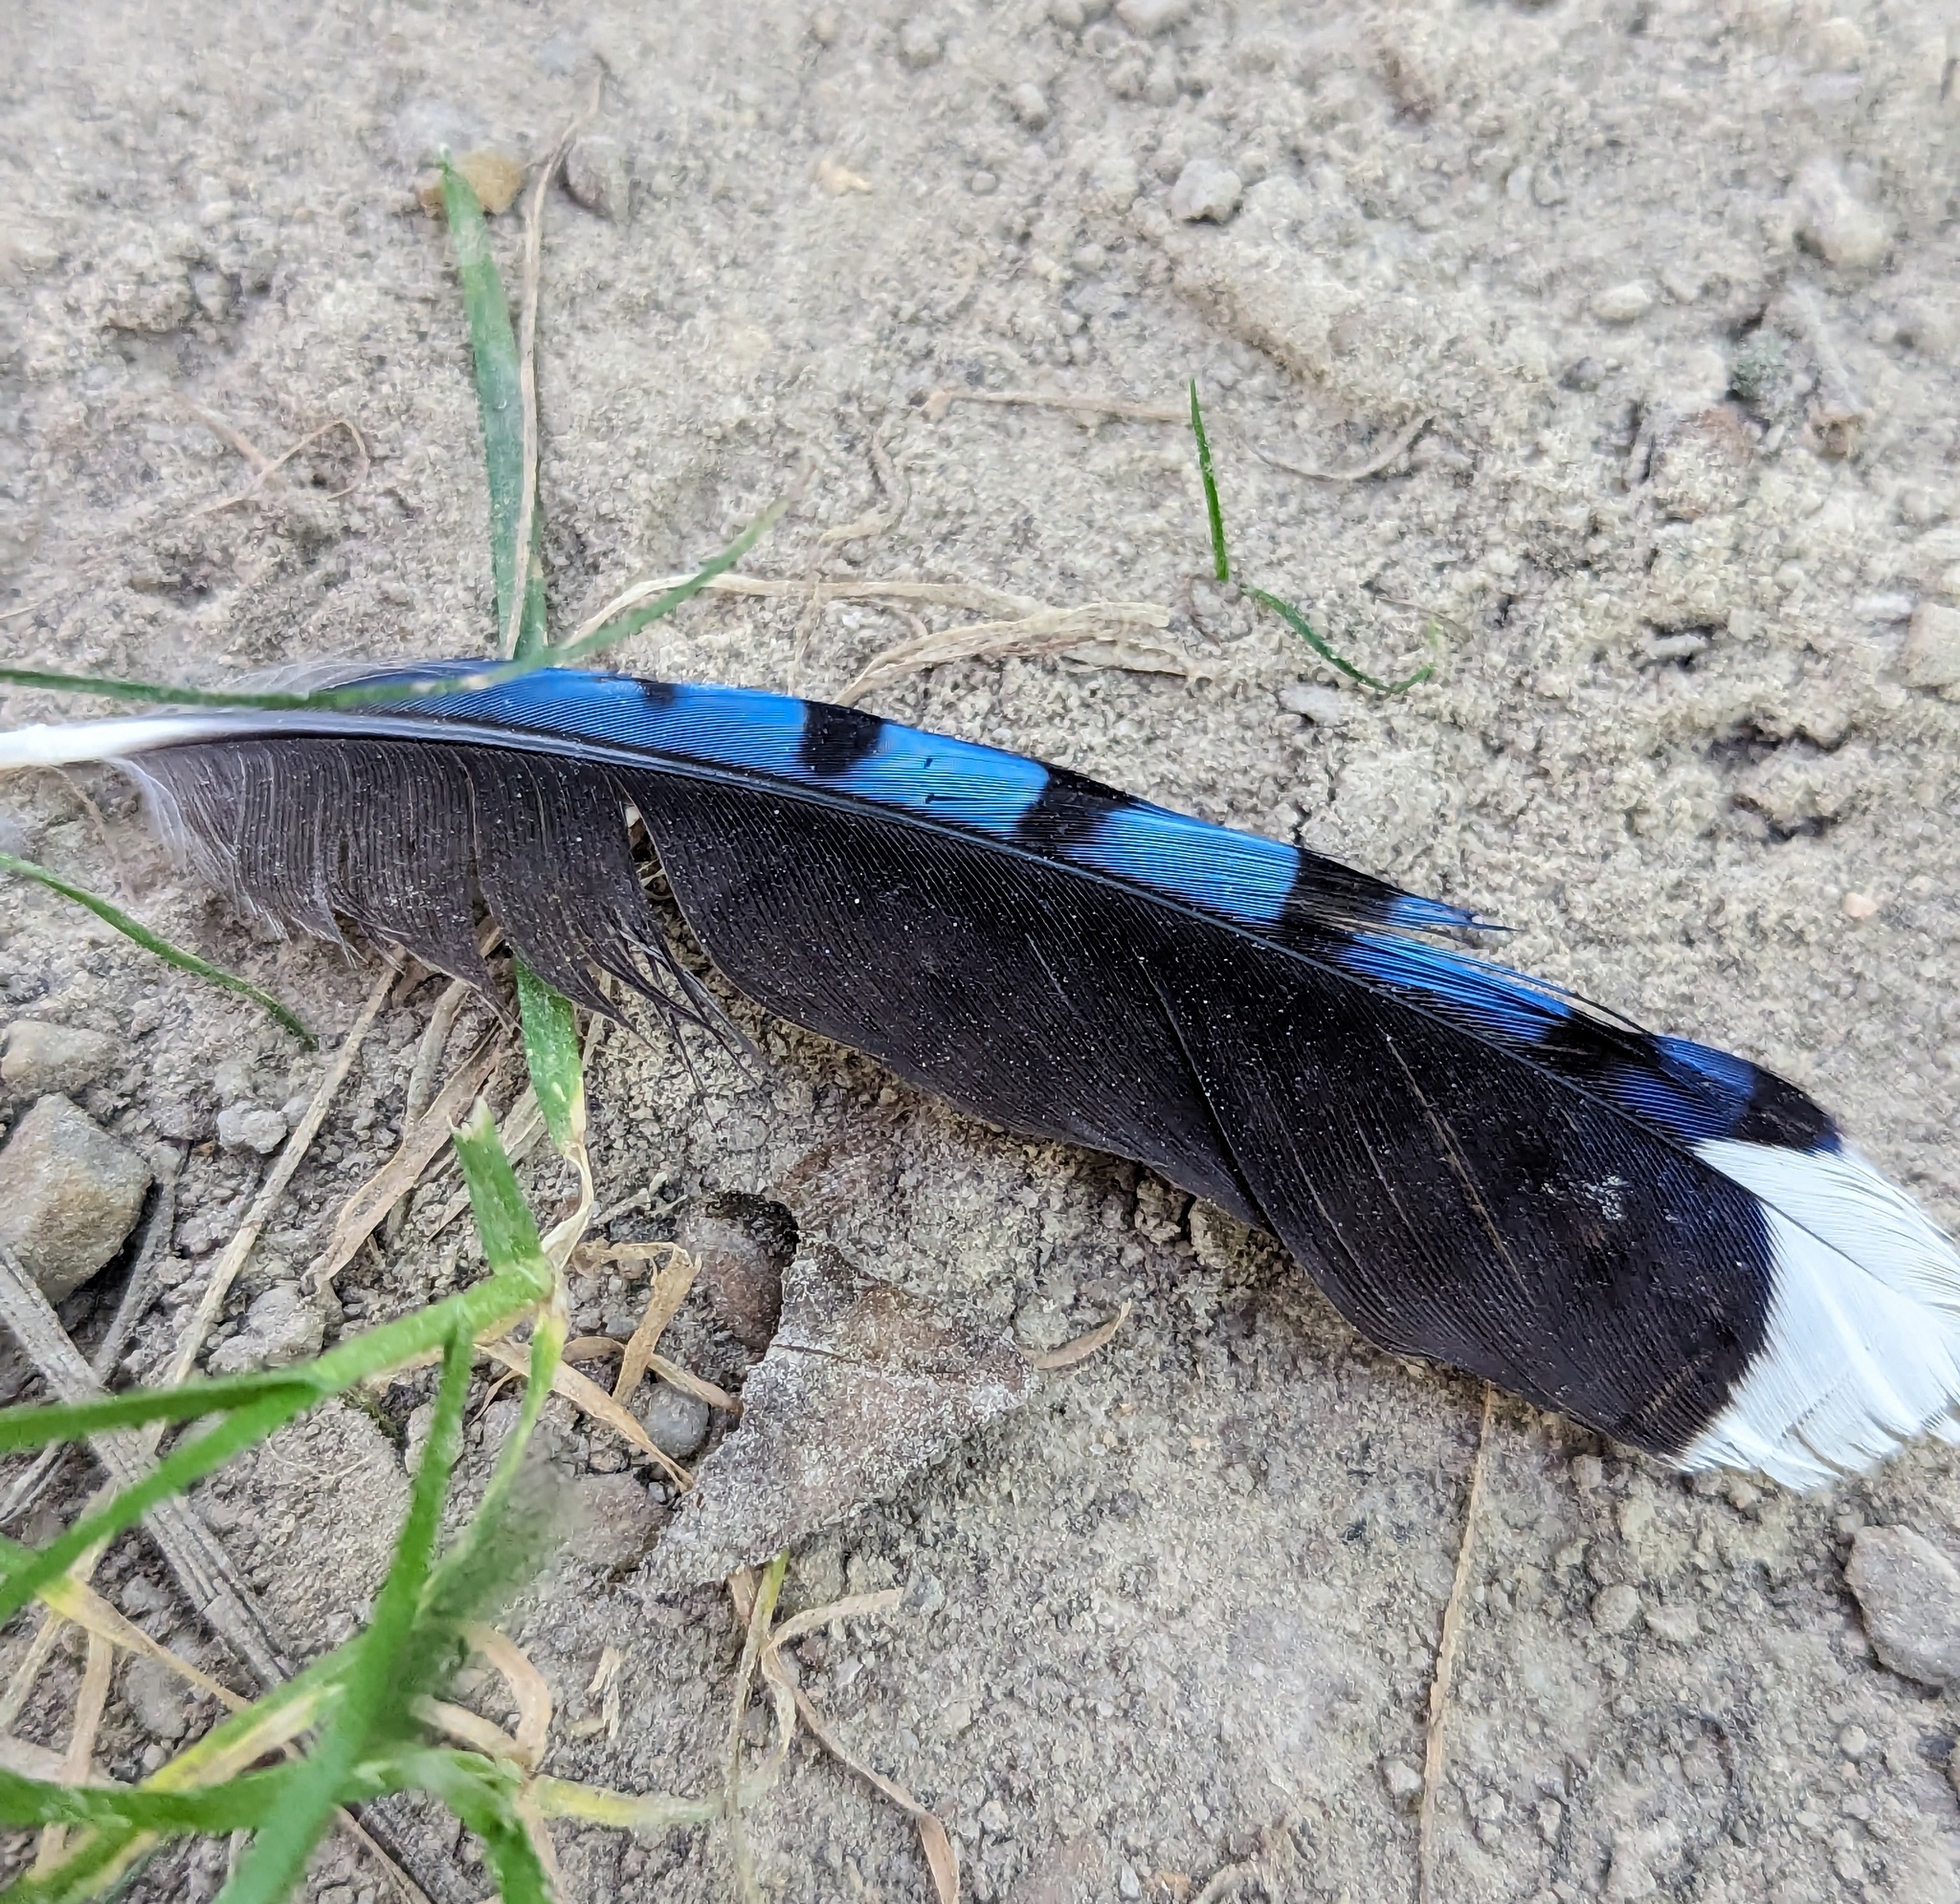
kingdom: Animalia
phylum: Chordata
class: Aves
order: Passeriformes
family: Corvidae
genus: Cyanocitta
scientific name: Cyanocitta cristata
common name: Blue jay
